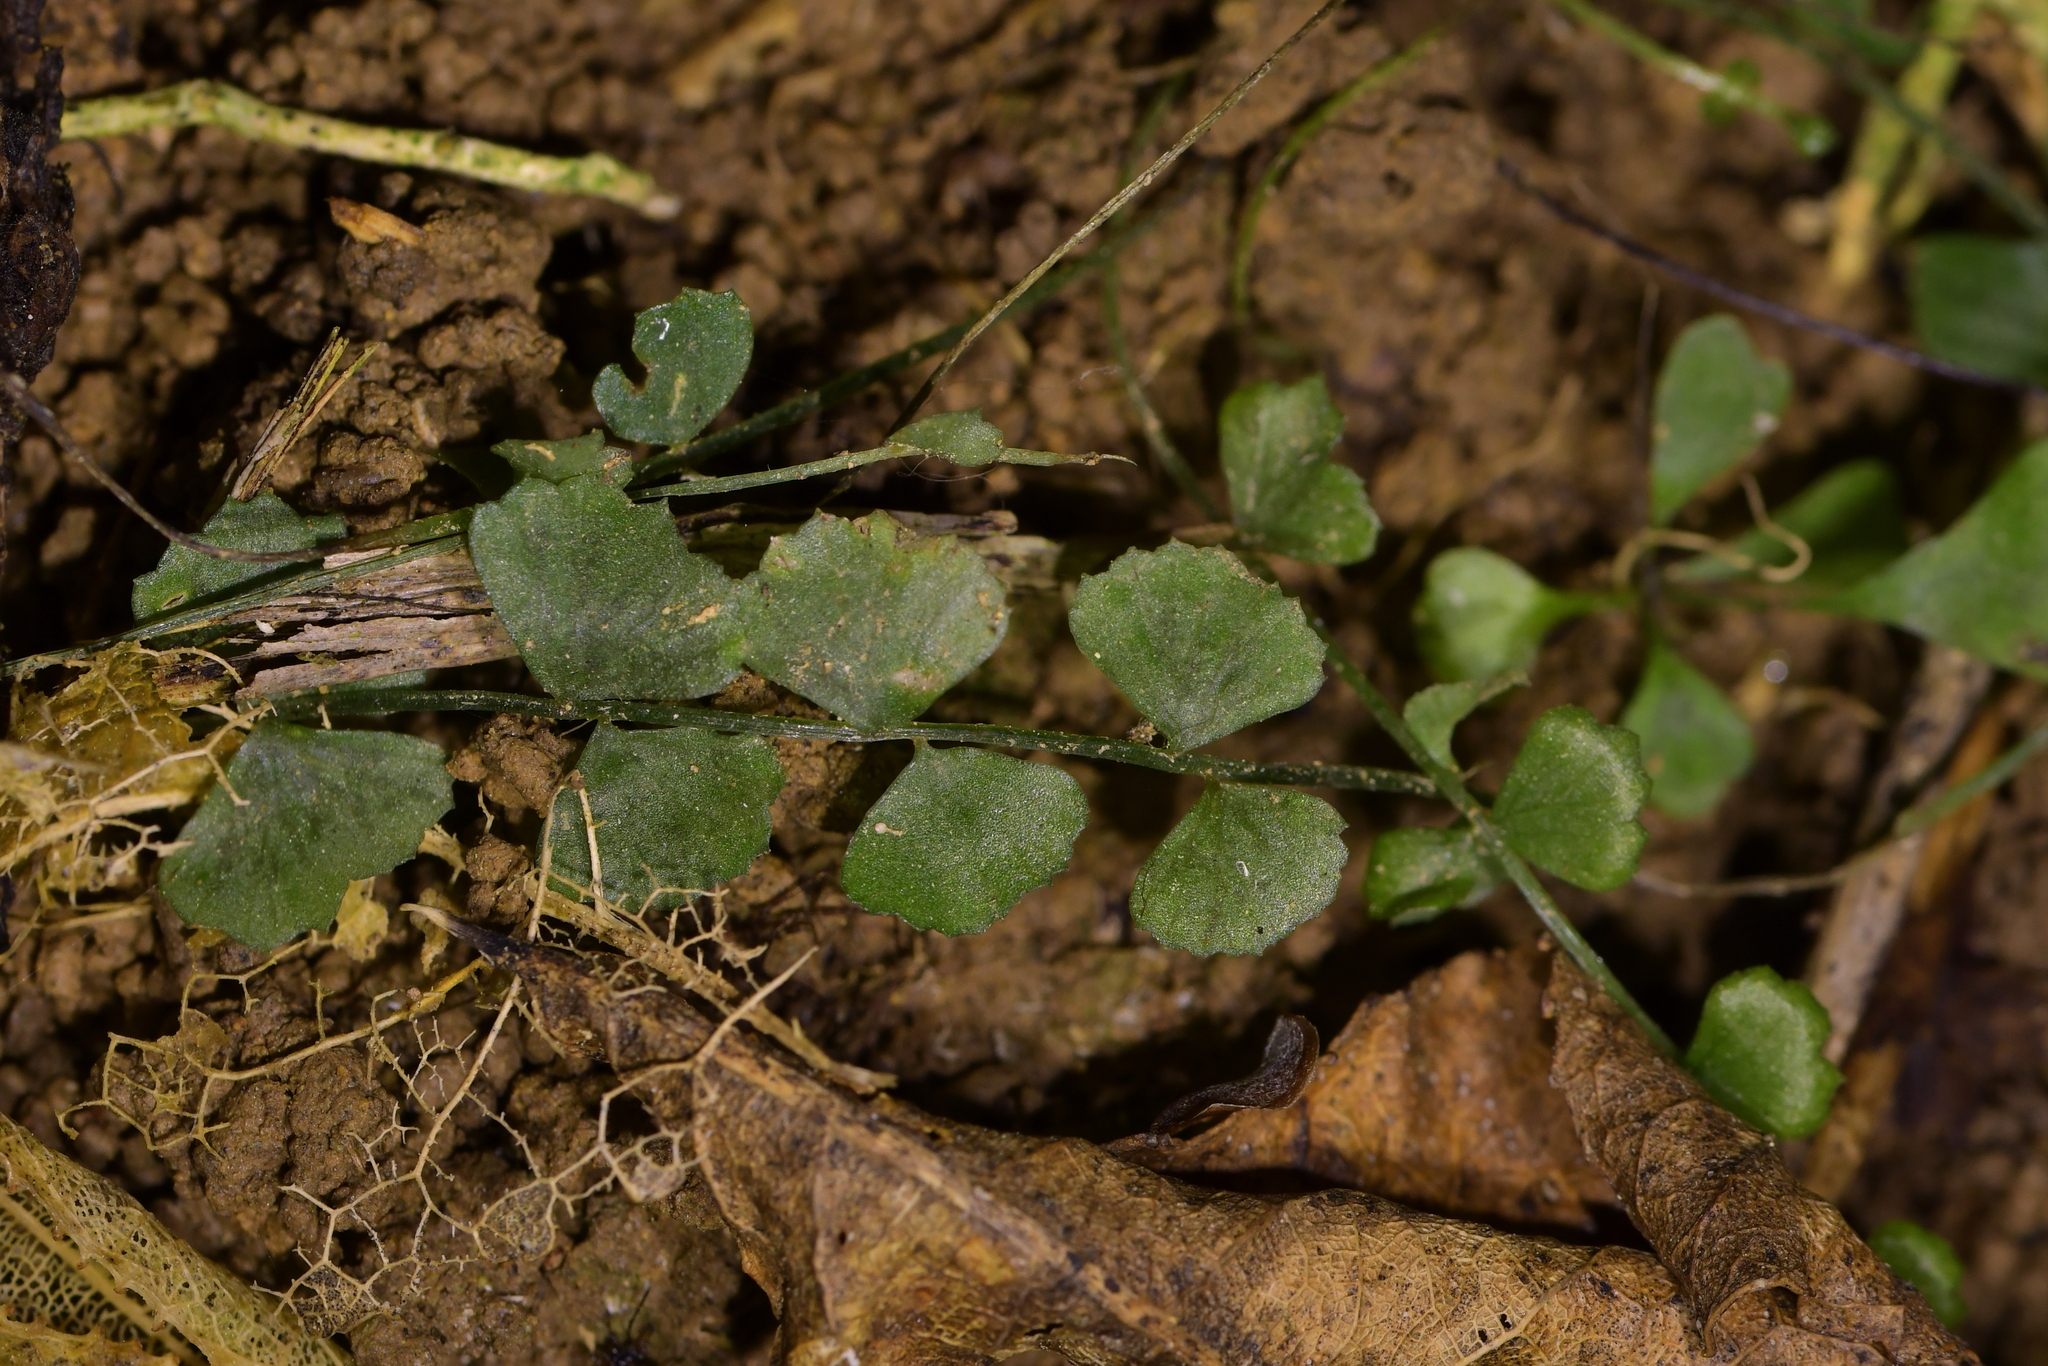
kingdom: Plantae
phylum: Tracheophyta
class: Polypodiopsida
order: Polypodiales
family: Aspleniaceae
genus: Asplenium
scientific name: Asplenium flabellifolium
